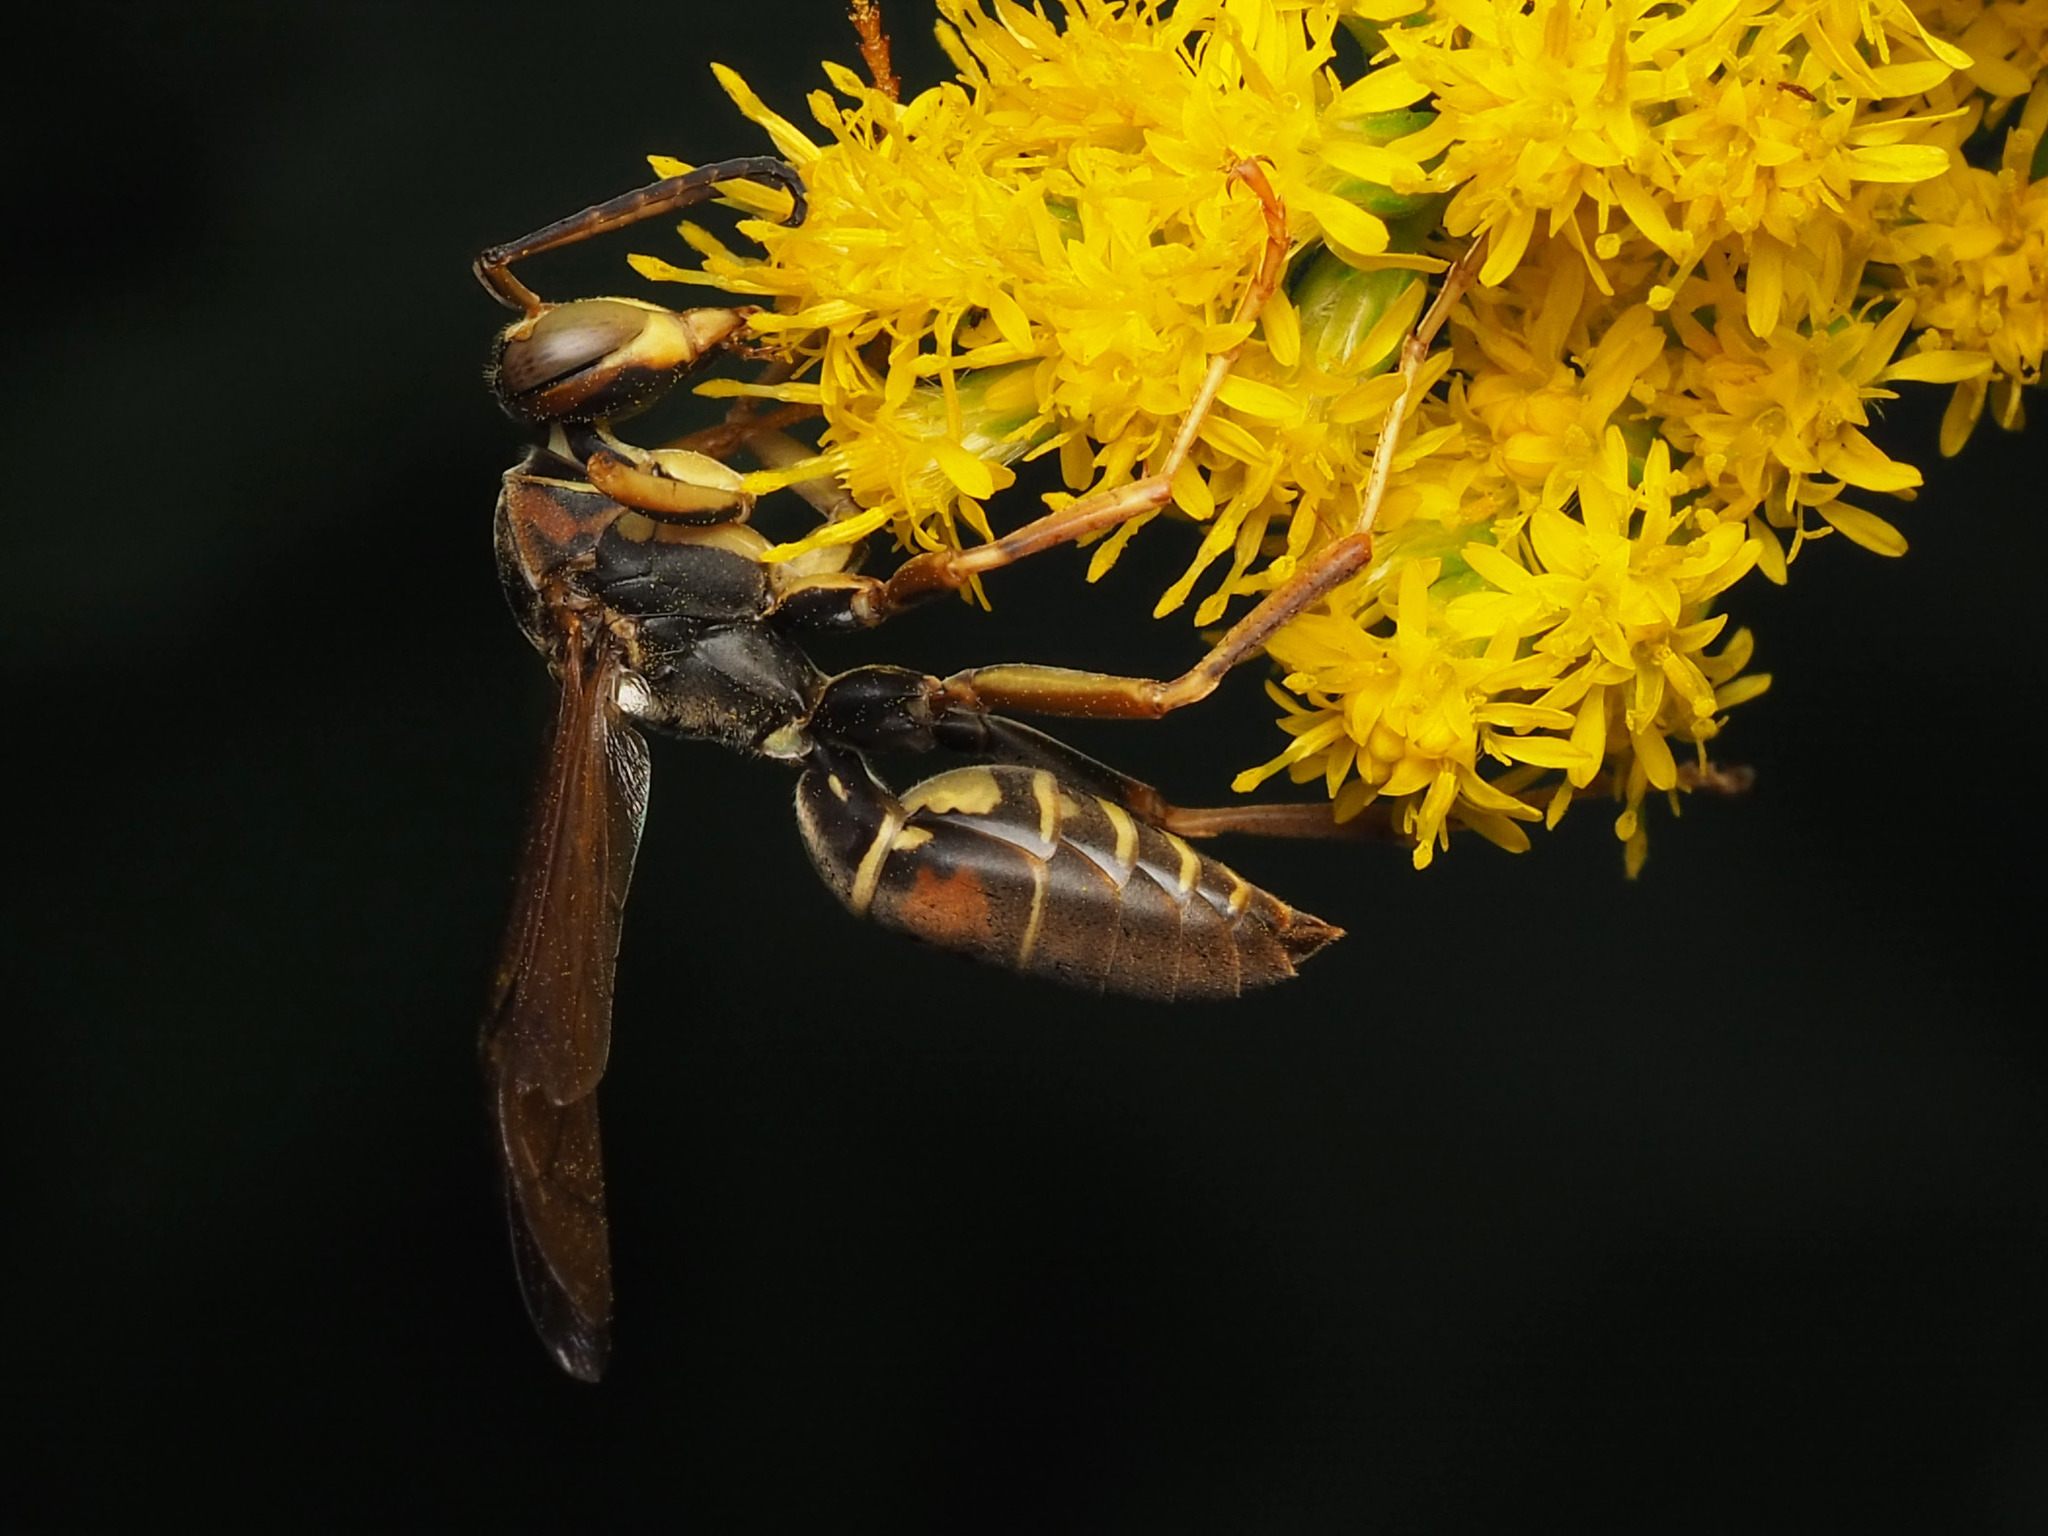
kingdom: Animalia
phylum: Arthropoda
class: Insecta
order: Hymenoptera
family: Eumenidae
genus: Polistes
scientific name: Polistes fuscatus
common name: Dark paper wasp
